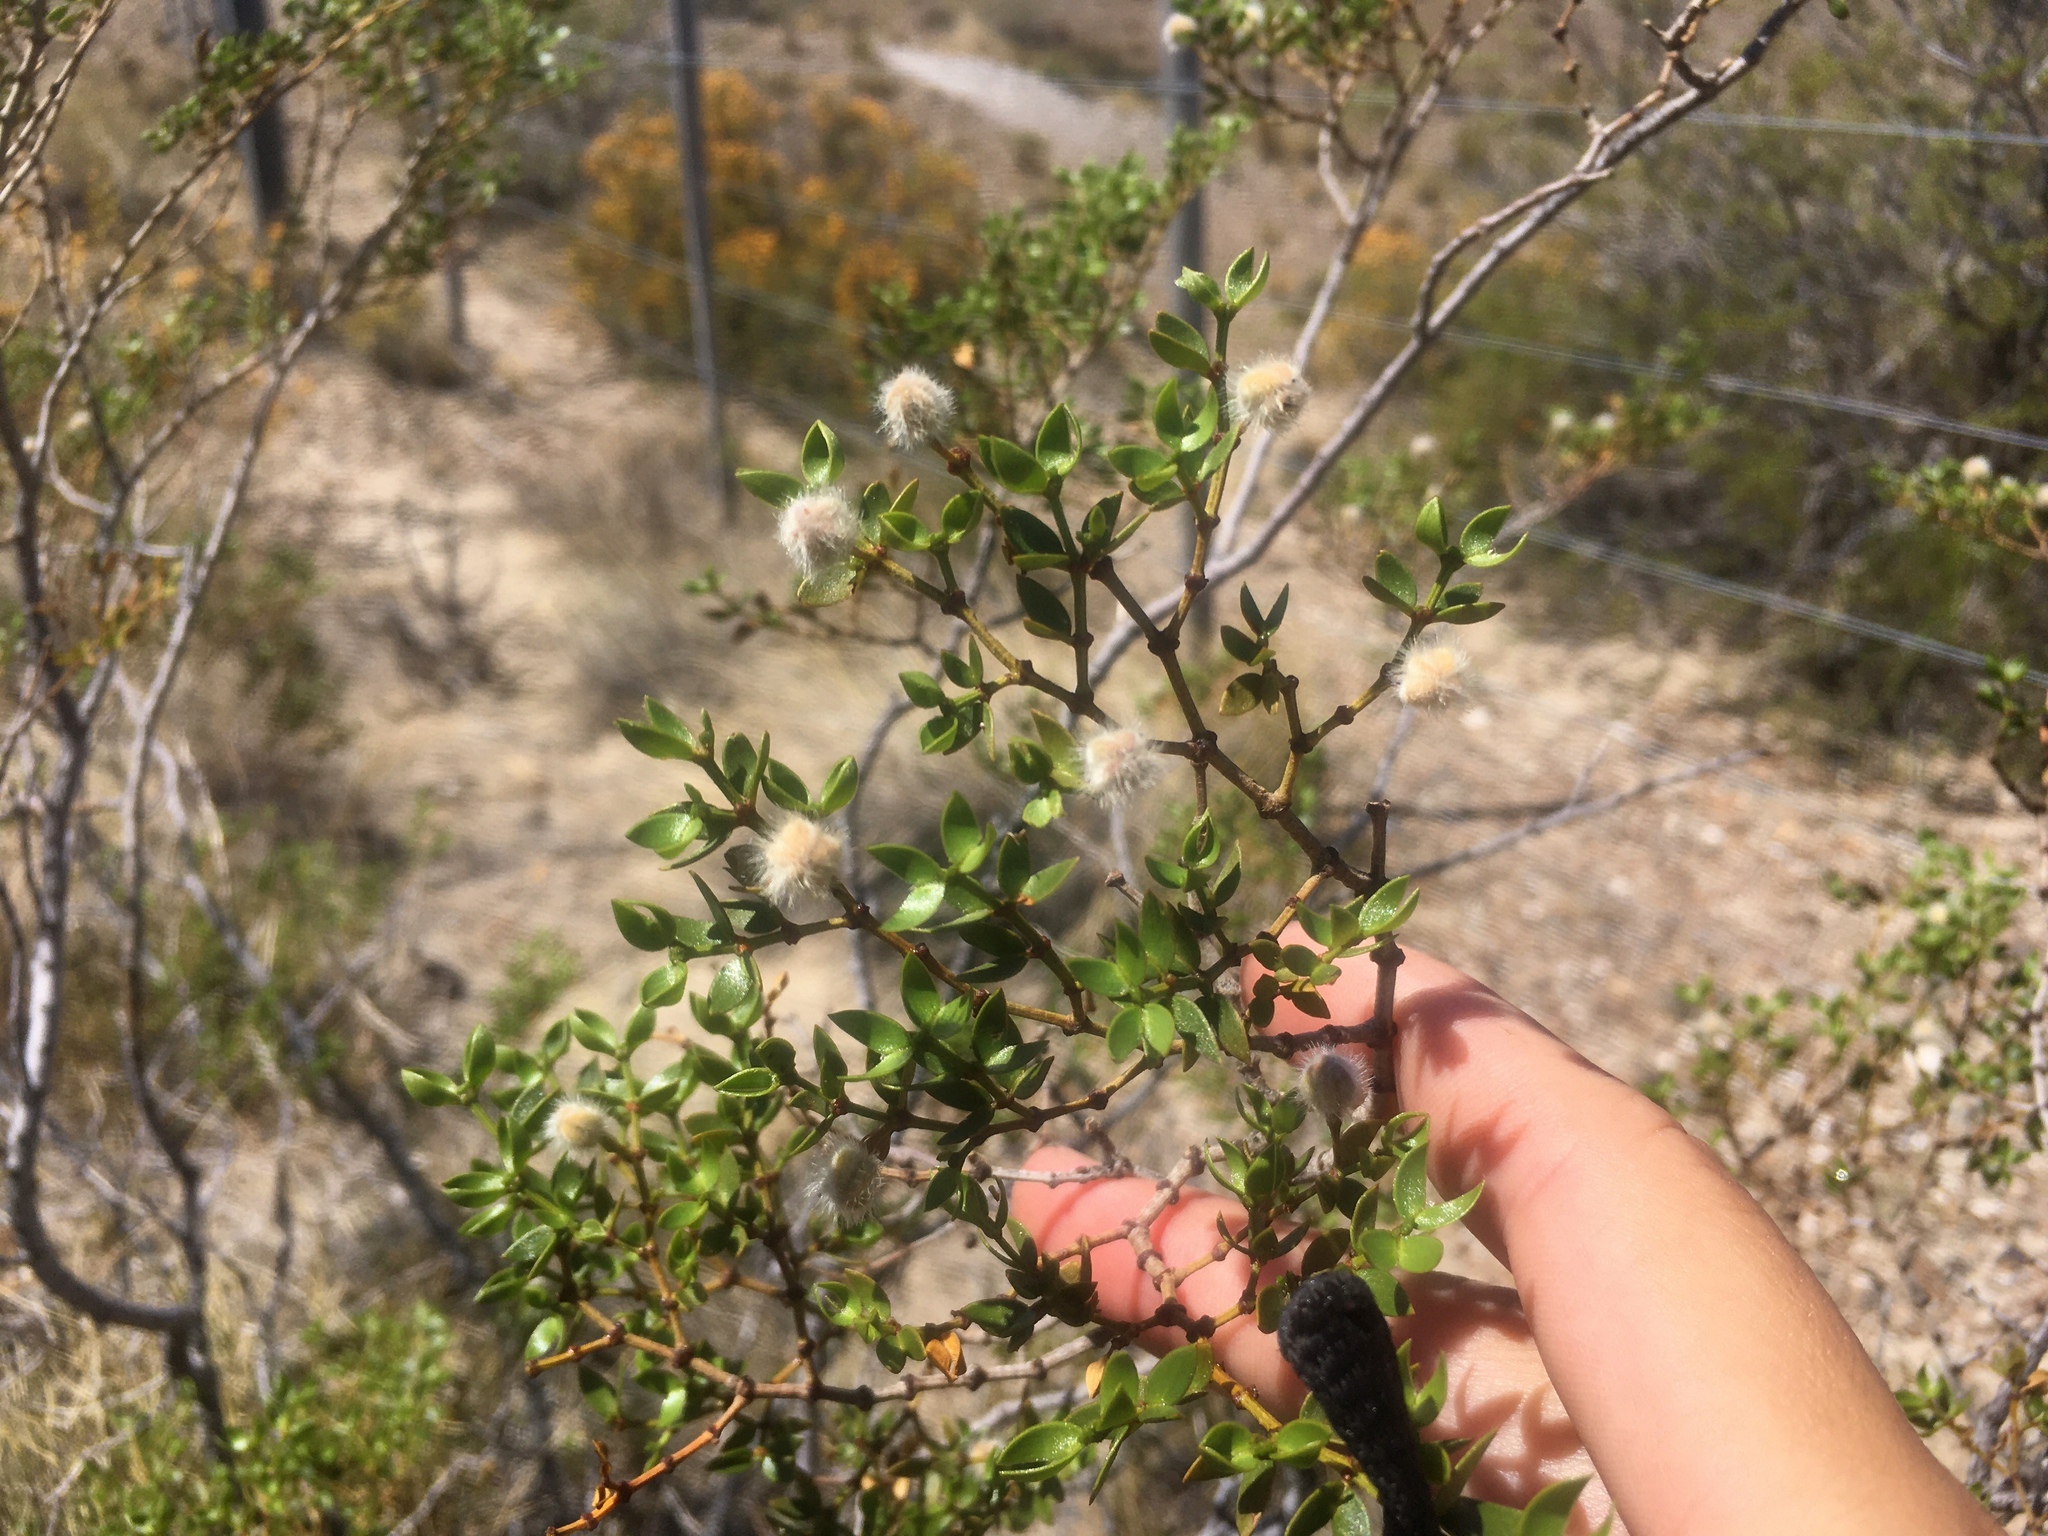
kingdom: Plantae
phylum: Tracheophyta
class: Magnoliopsida
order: Zygophyllales
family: Zygophyllaceae
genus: Larrea
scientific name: Larrea divaricata
